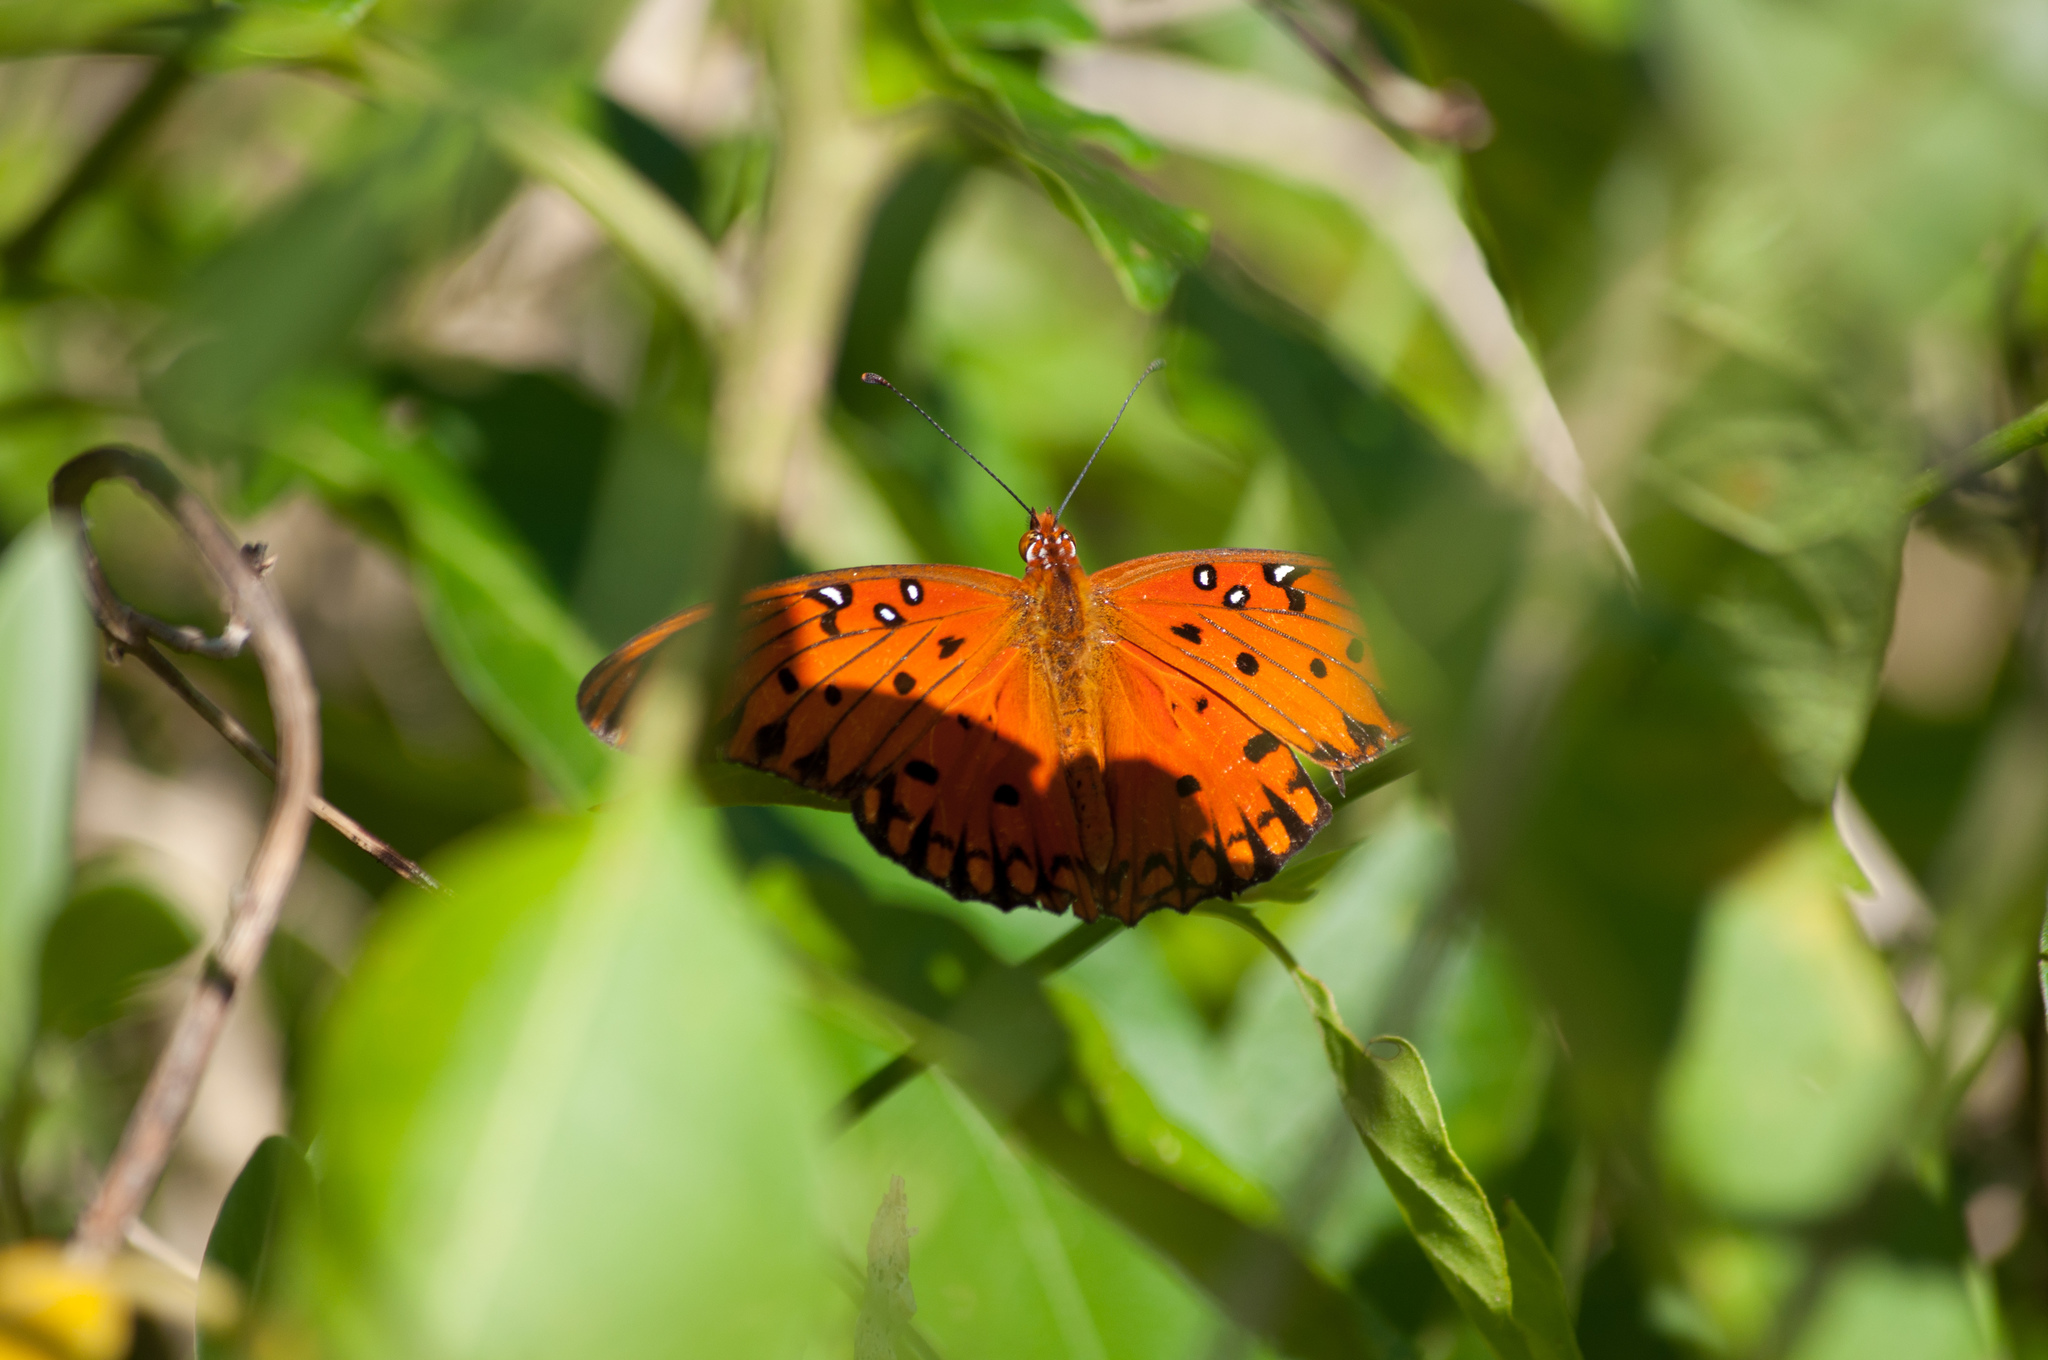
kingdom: Animalia
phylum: Arthropoda
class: Insecta
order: Lepidoptera
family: Nymphalidae
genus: Dione
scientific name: Dione vanillae
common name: Gulf fritillary
